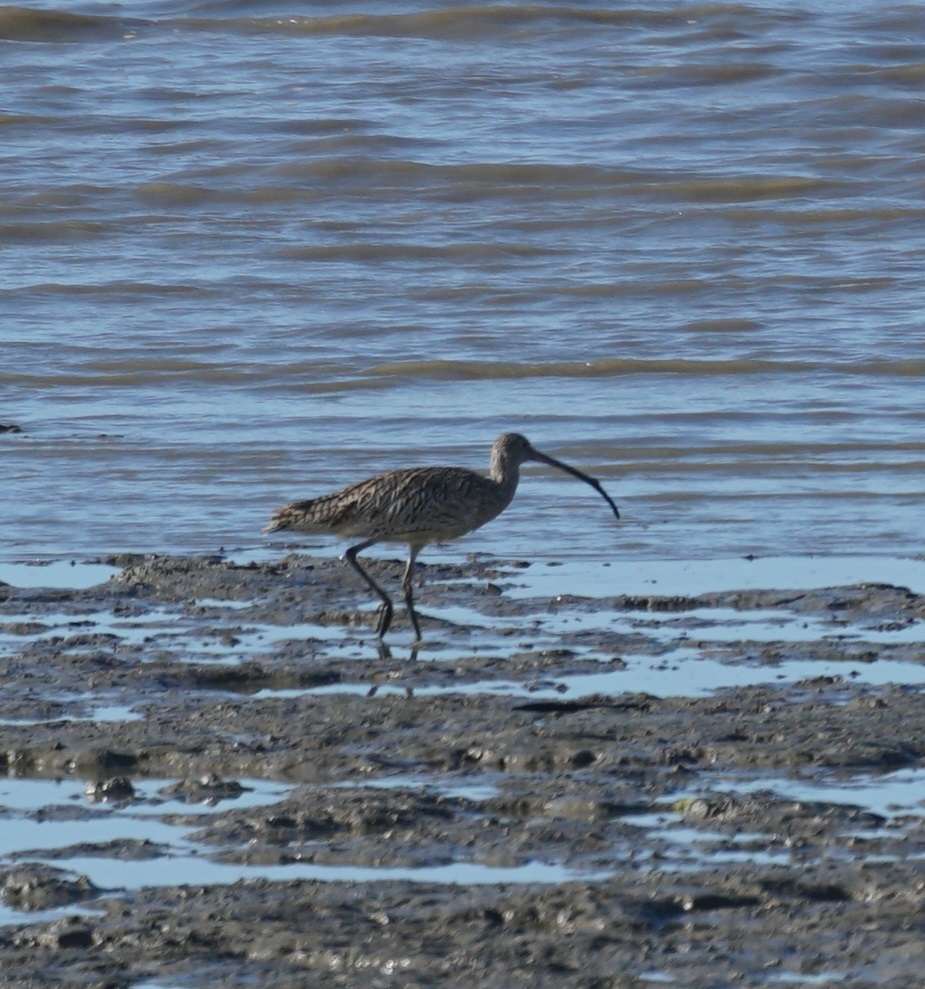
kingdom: Animalia
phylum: Chordata
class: Aves
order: Charadriiformes
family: Scolopacidae
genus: Numenius
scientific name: Numenius madagascariensis
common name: Far eastern curlew
